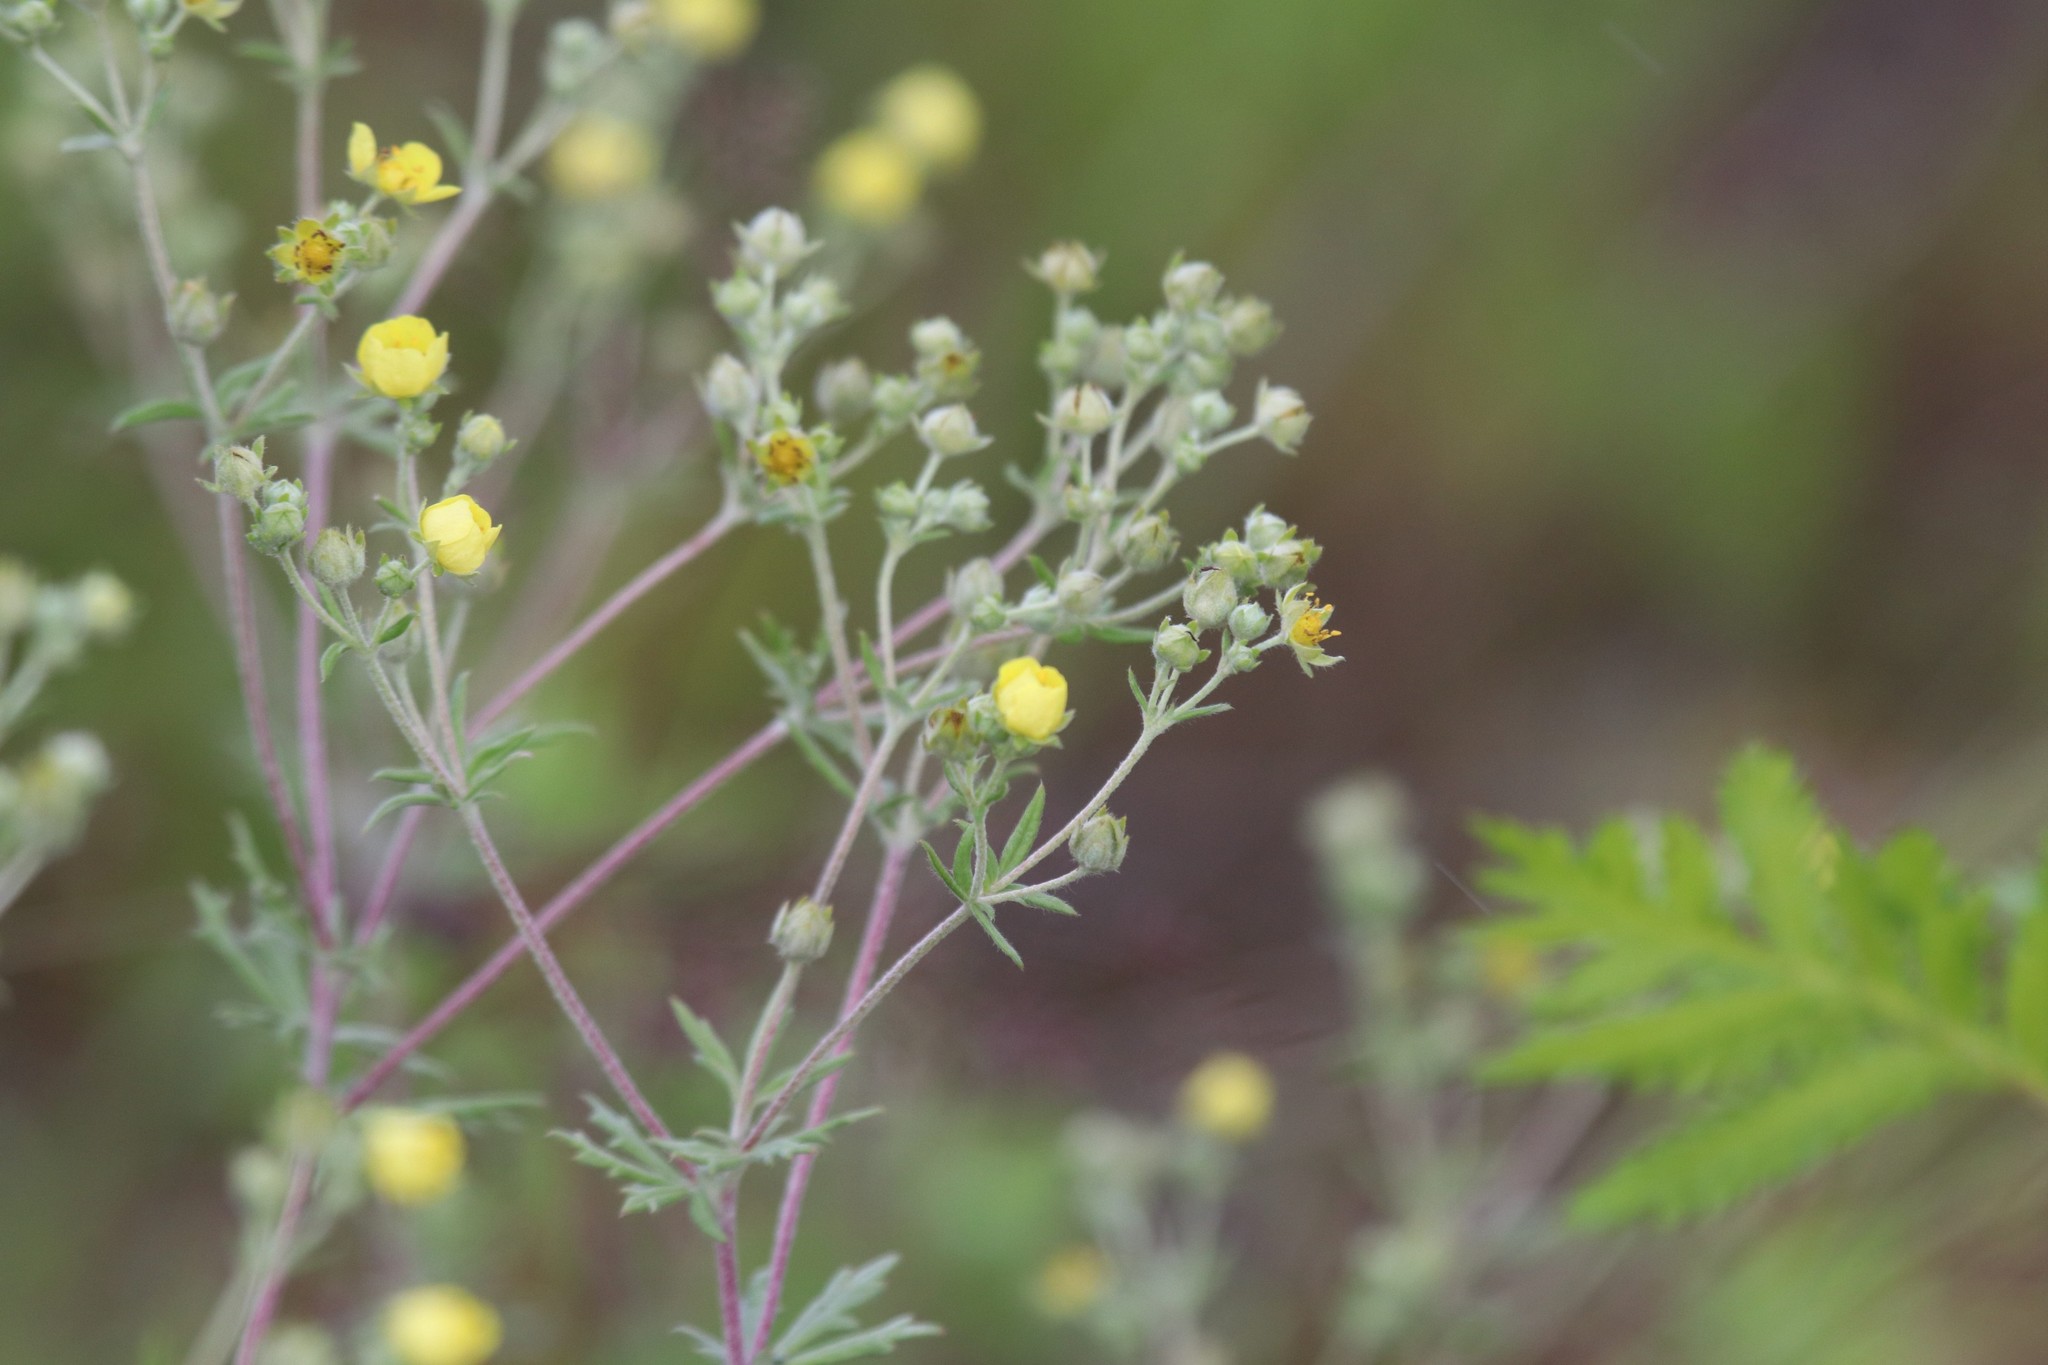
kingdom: Plantae
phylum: Tracheophyta
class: Magnoliopsida
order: Rosales
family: Rosaceae
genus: Potentilla
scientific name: Potentilla argentea
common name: Hoary cinquefoil
